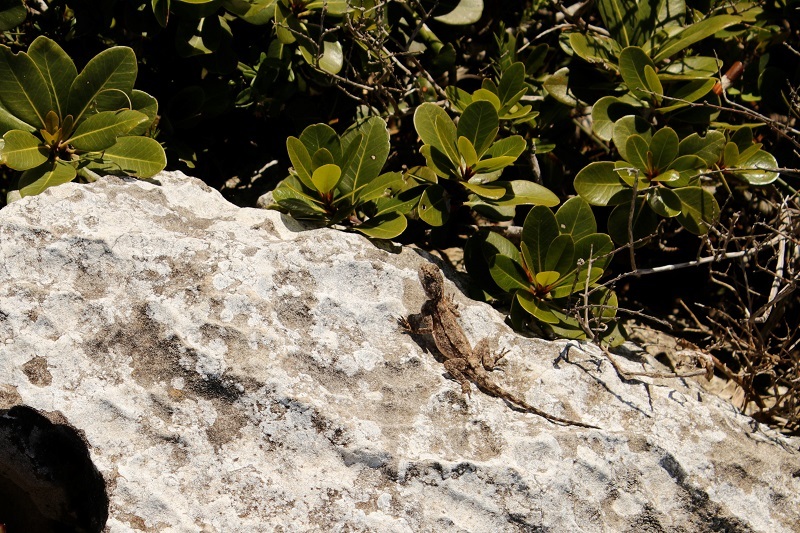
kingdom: Animalia
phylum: Chordata
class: Squamata
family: Agamidae
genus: Agama
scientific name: Agama atra
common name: Southern african rock agama
